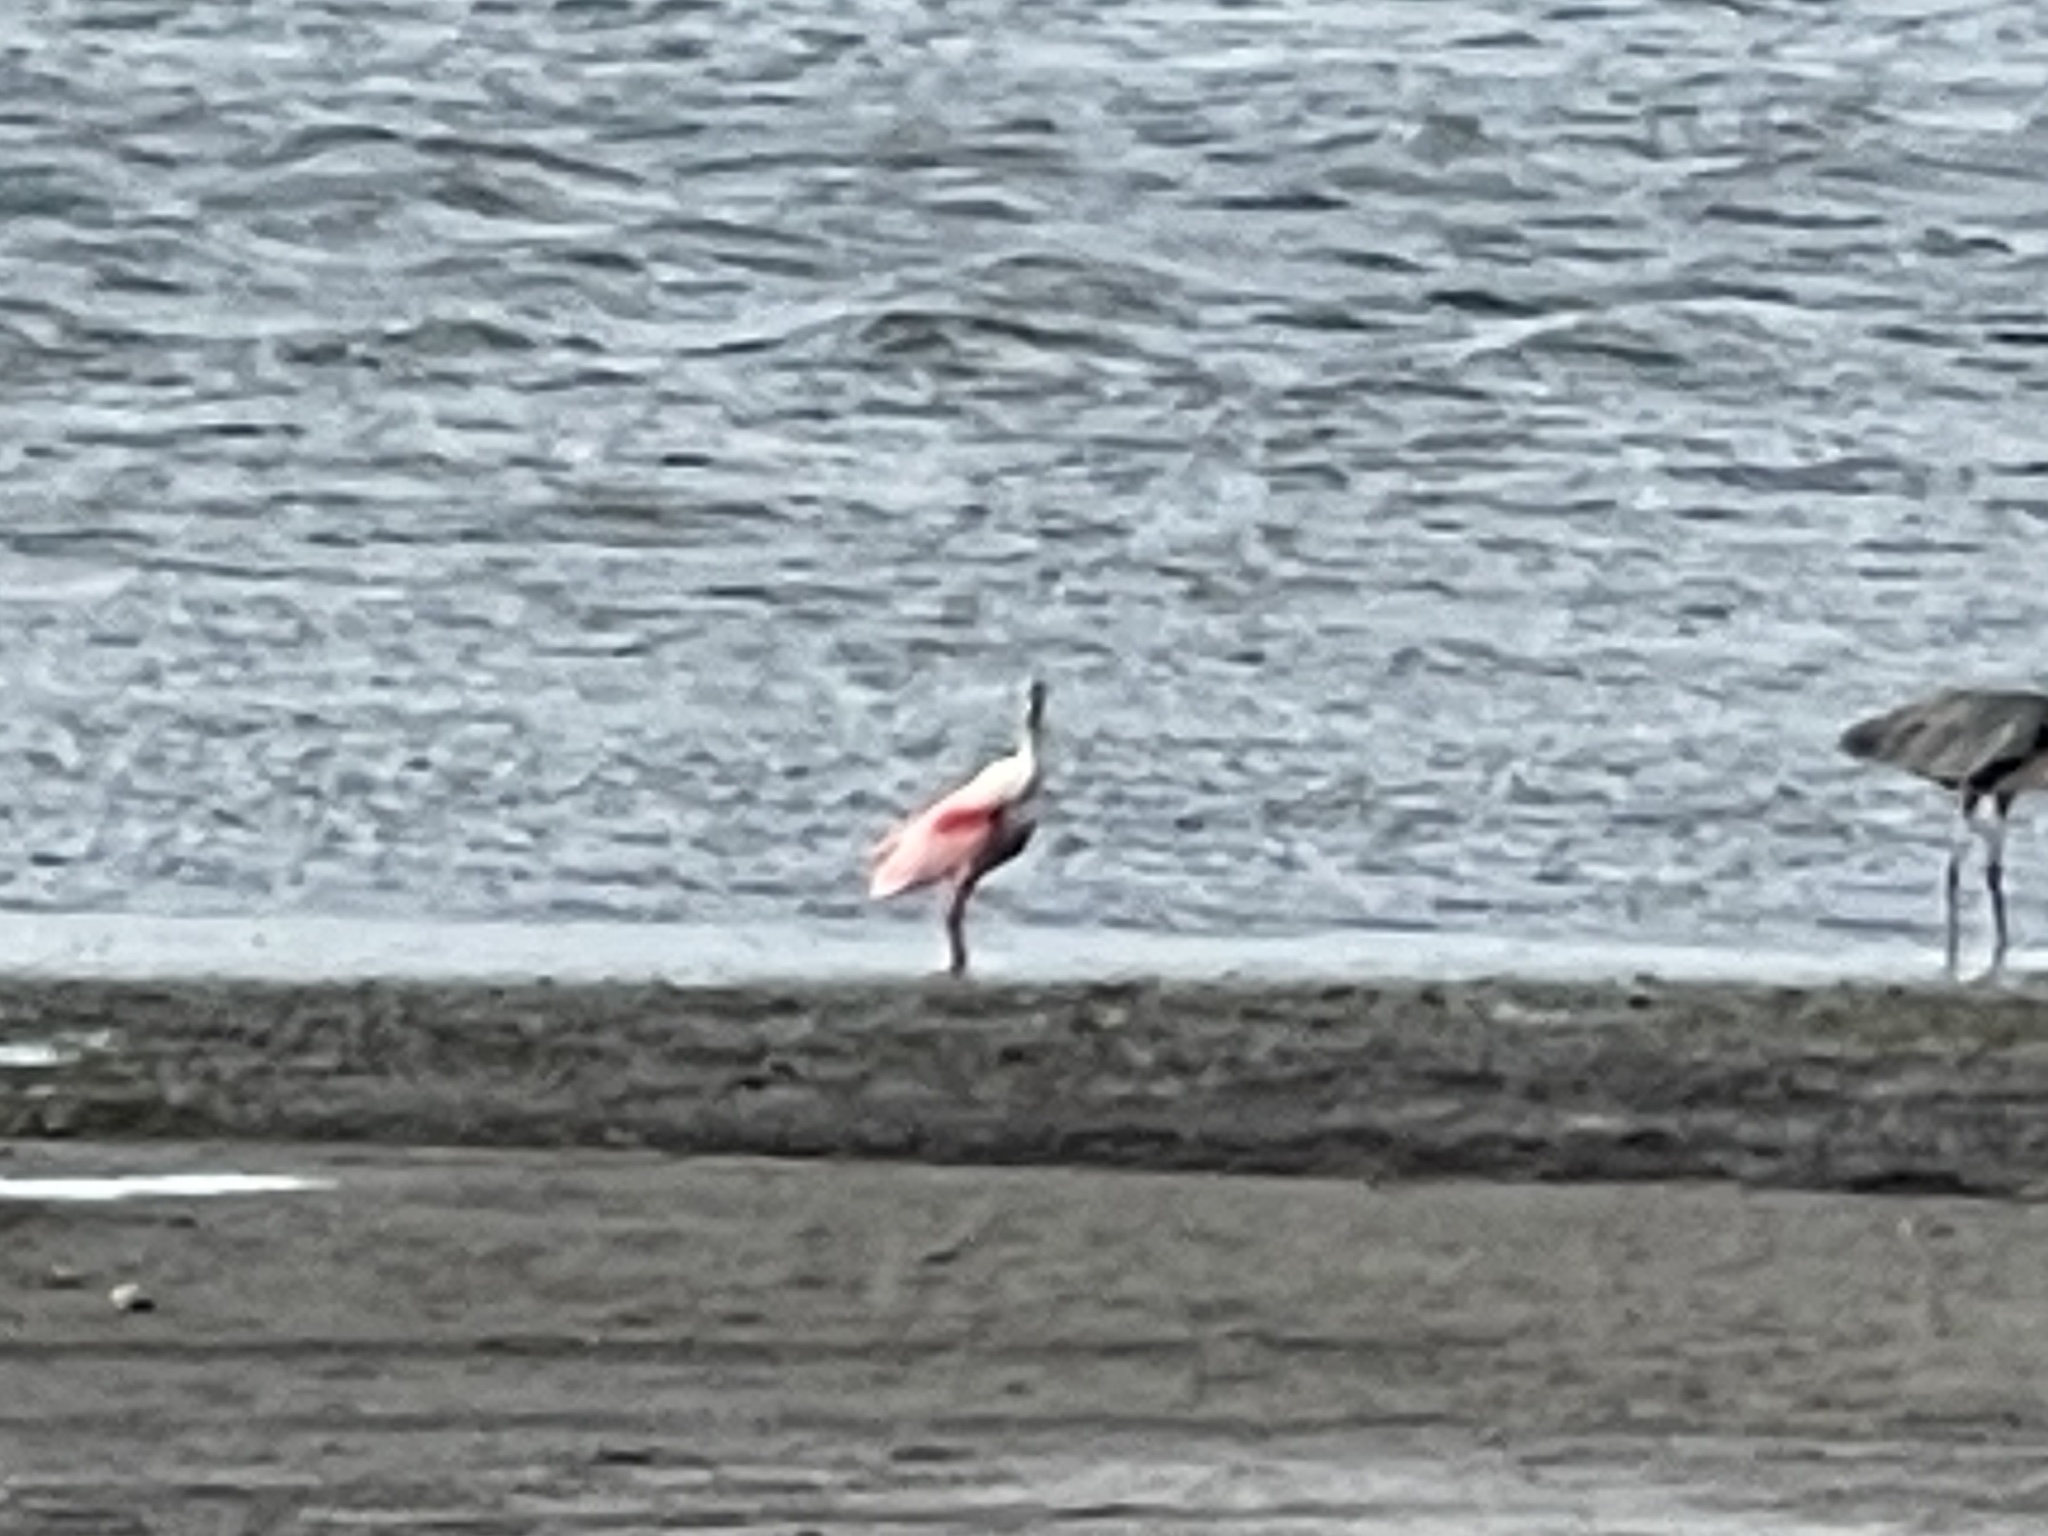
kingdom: Animalia
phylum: Chordata
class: Aves
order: Pelecaniformes
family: Threskiornithidae
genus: Platalea
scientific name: Platalea ajaja
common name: Roseate spoonbill
